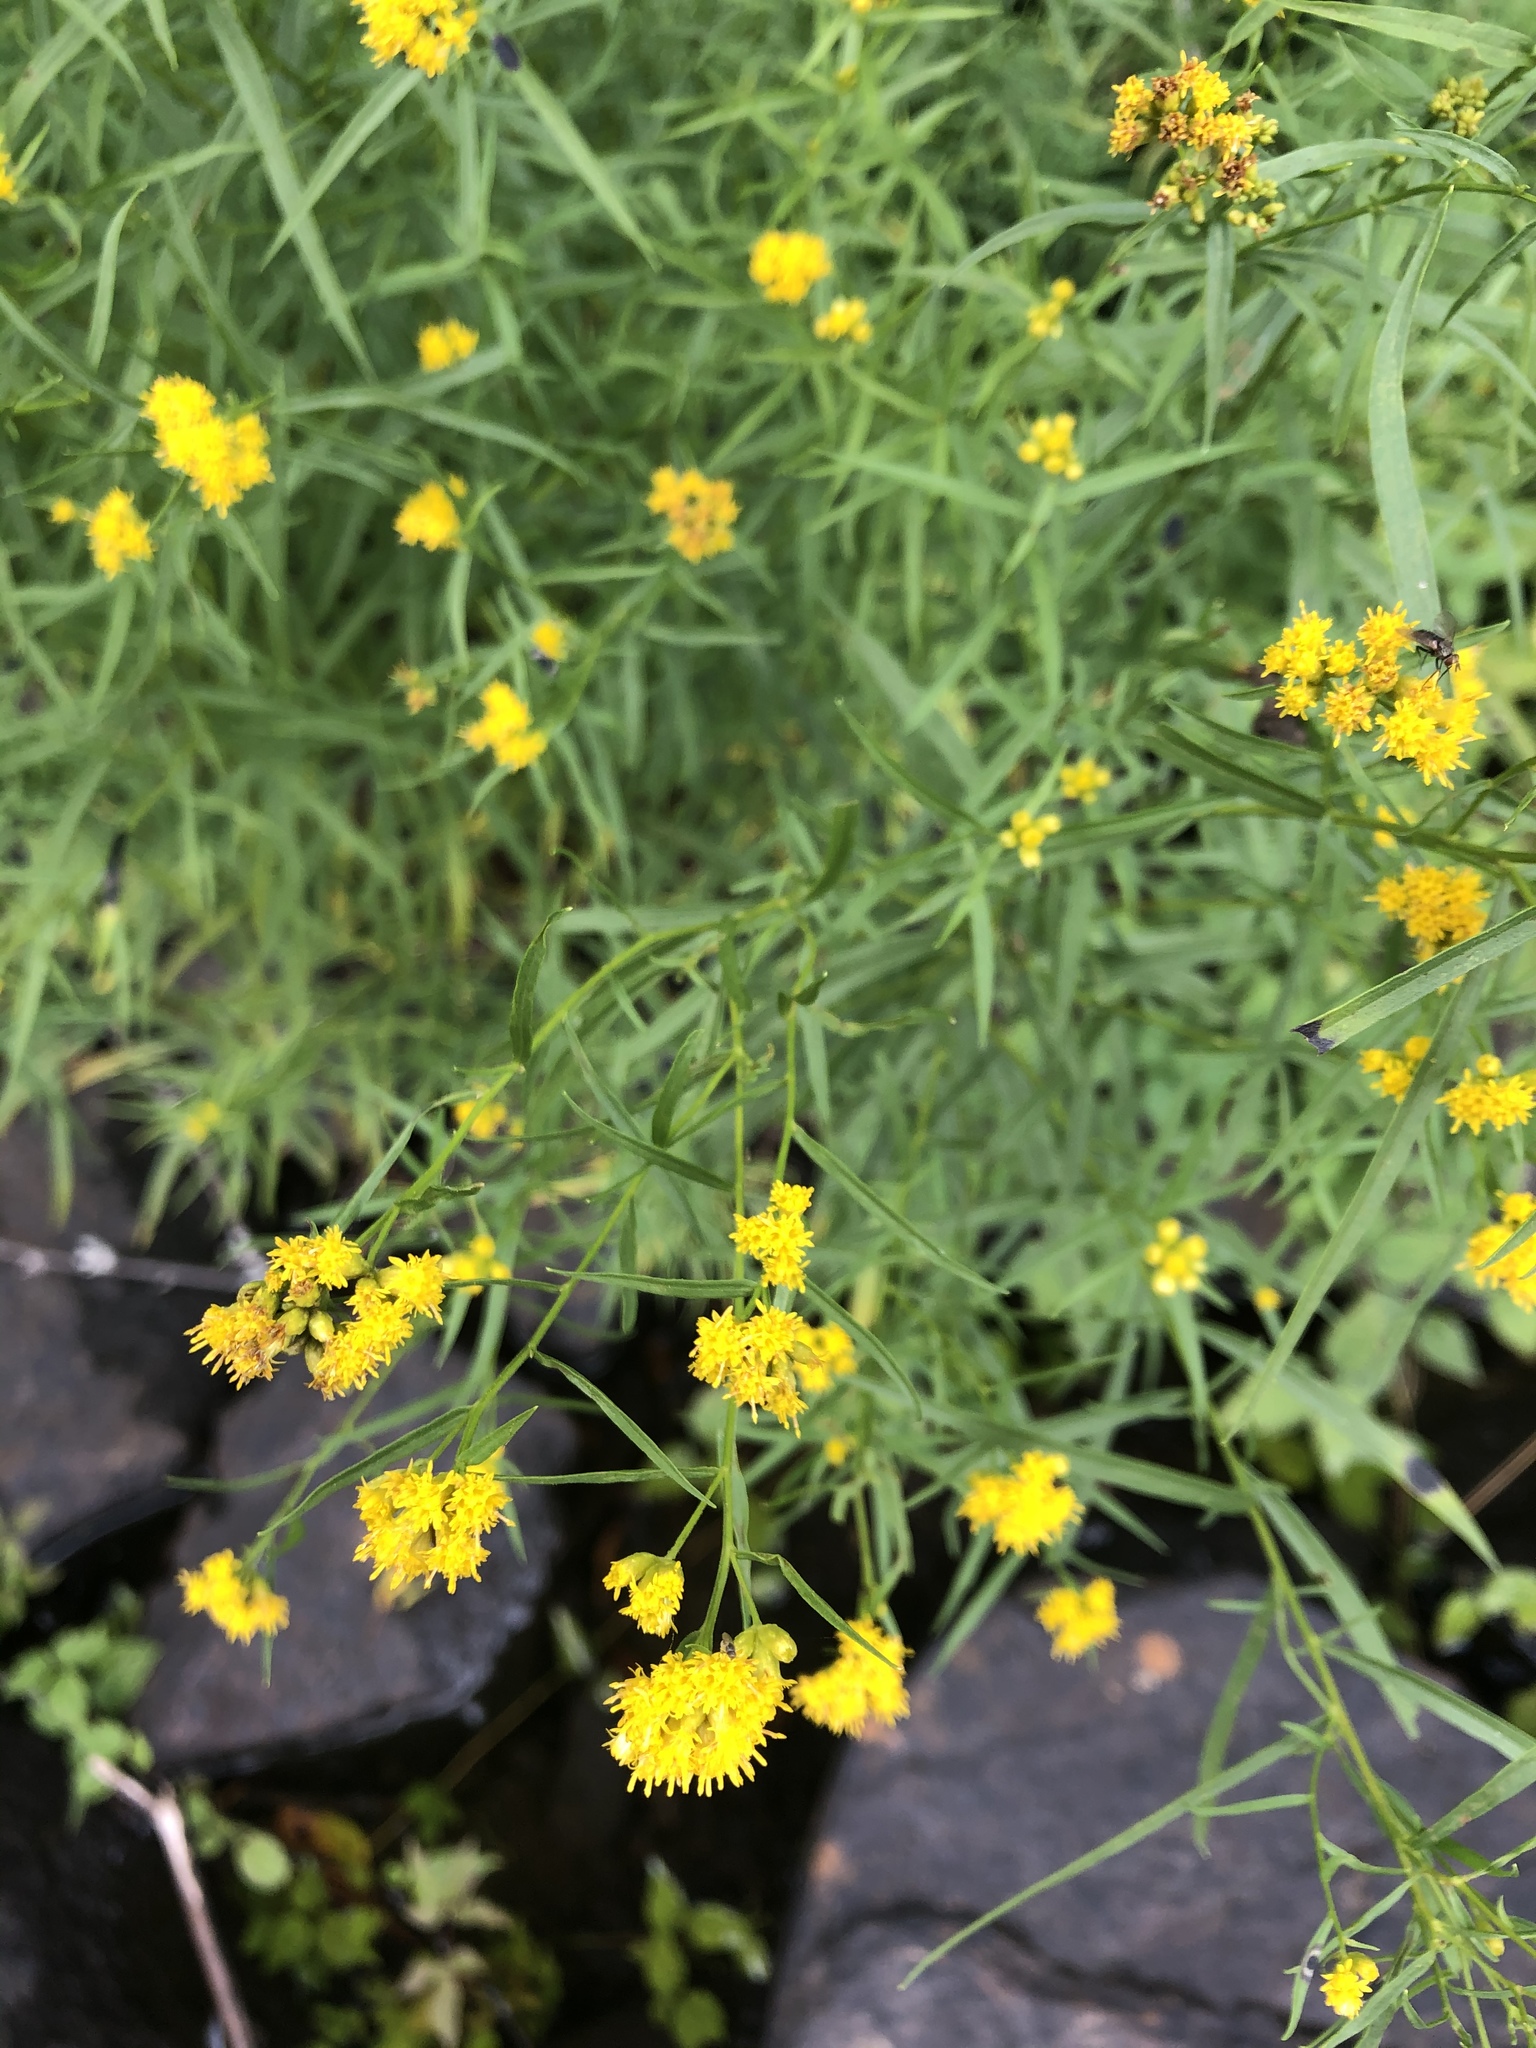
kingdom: Plantae
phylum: Tracheophyta
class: Magnoliopsida
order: Asterales
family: Asteraceae
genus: Euthamia
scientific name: Euthamia graminifolia
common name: Common goldentop
